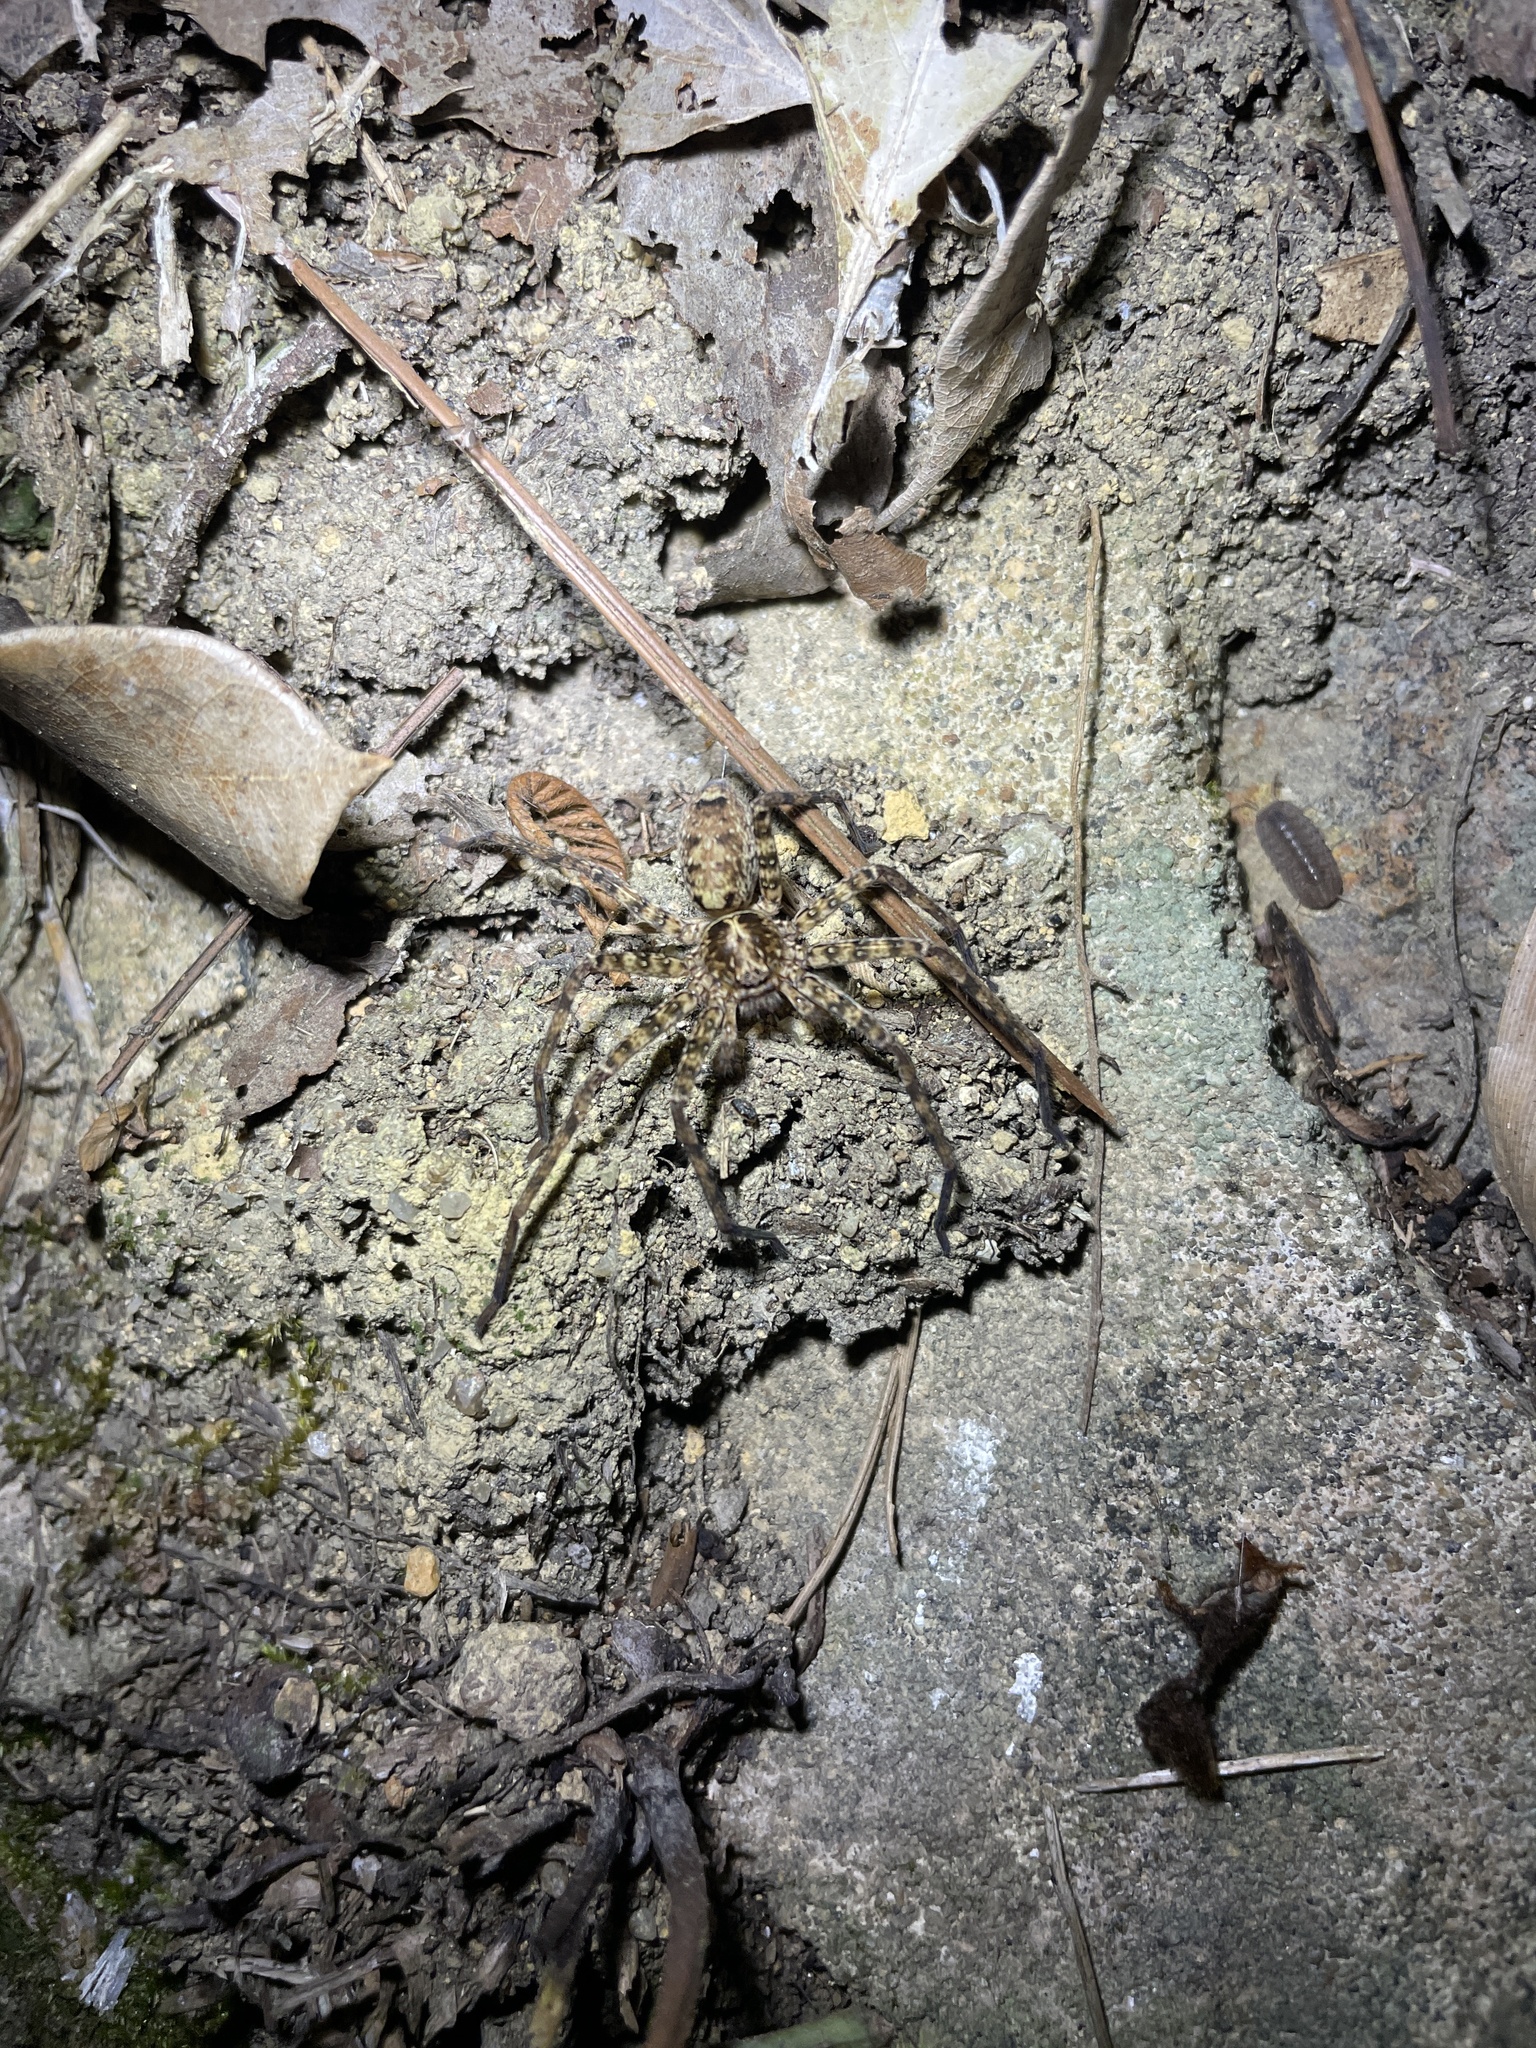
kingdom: Animalia
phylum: Arthropoda
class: Arachnida
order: Araneae
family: Sparassidae
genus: Heteropoda
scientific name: Heteropoda amphora
